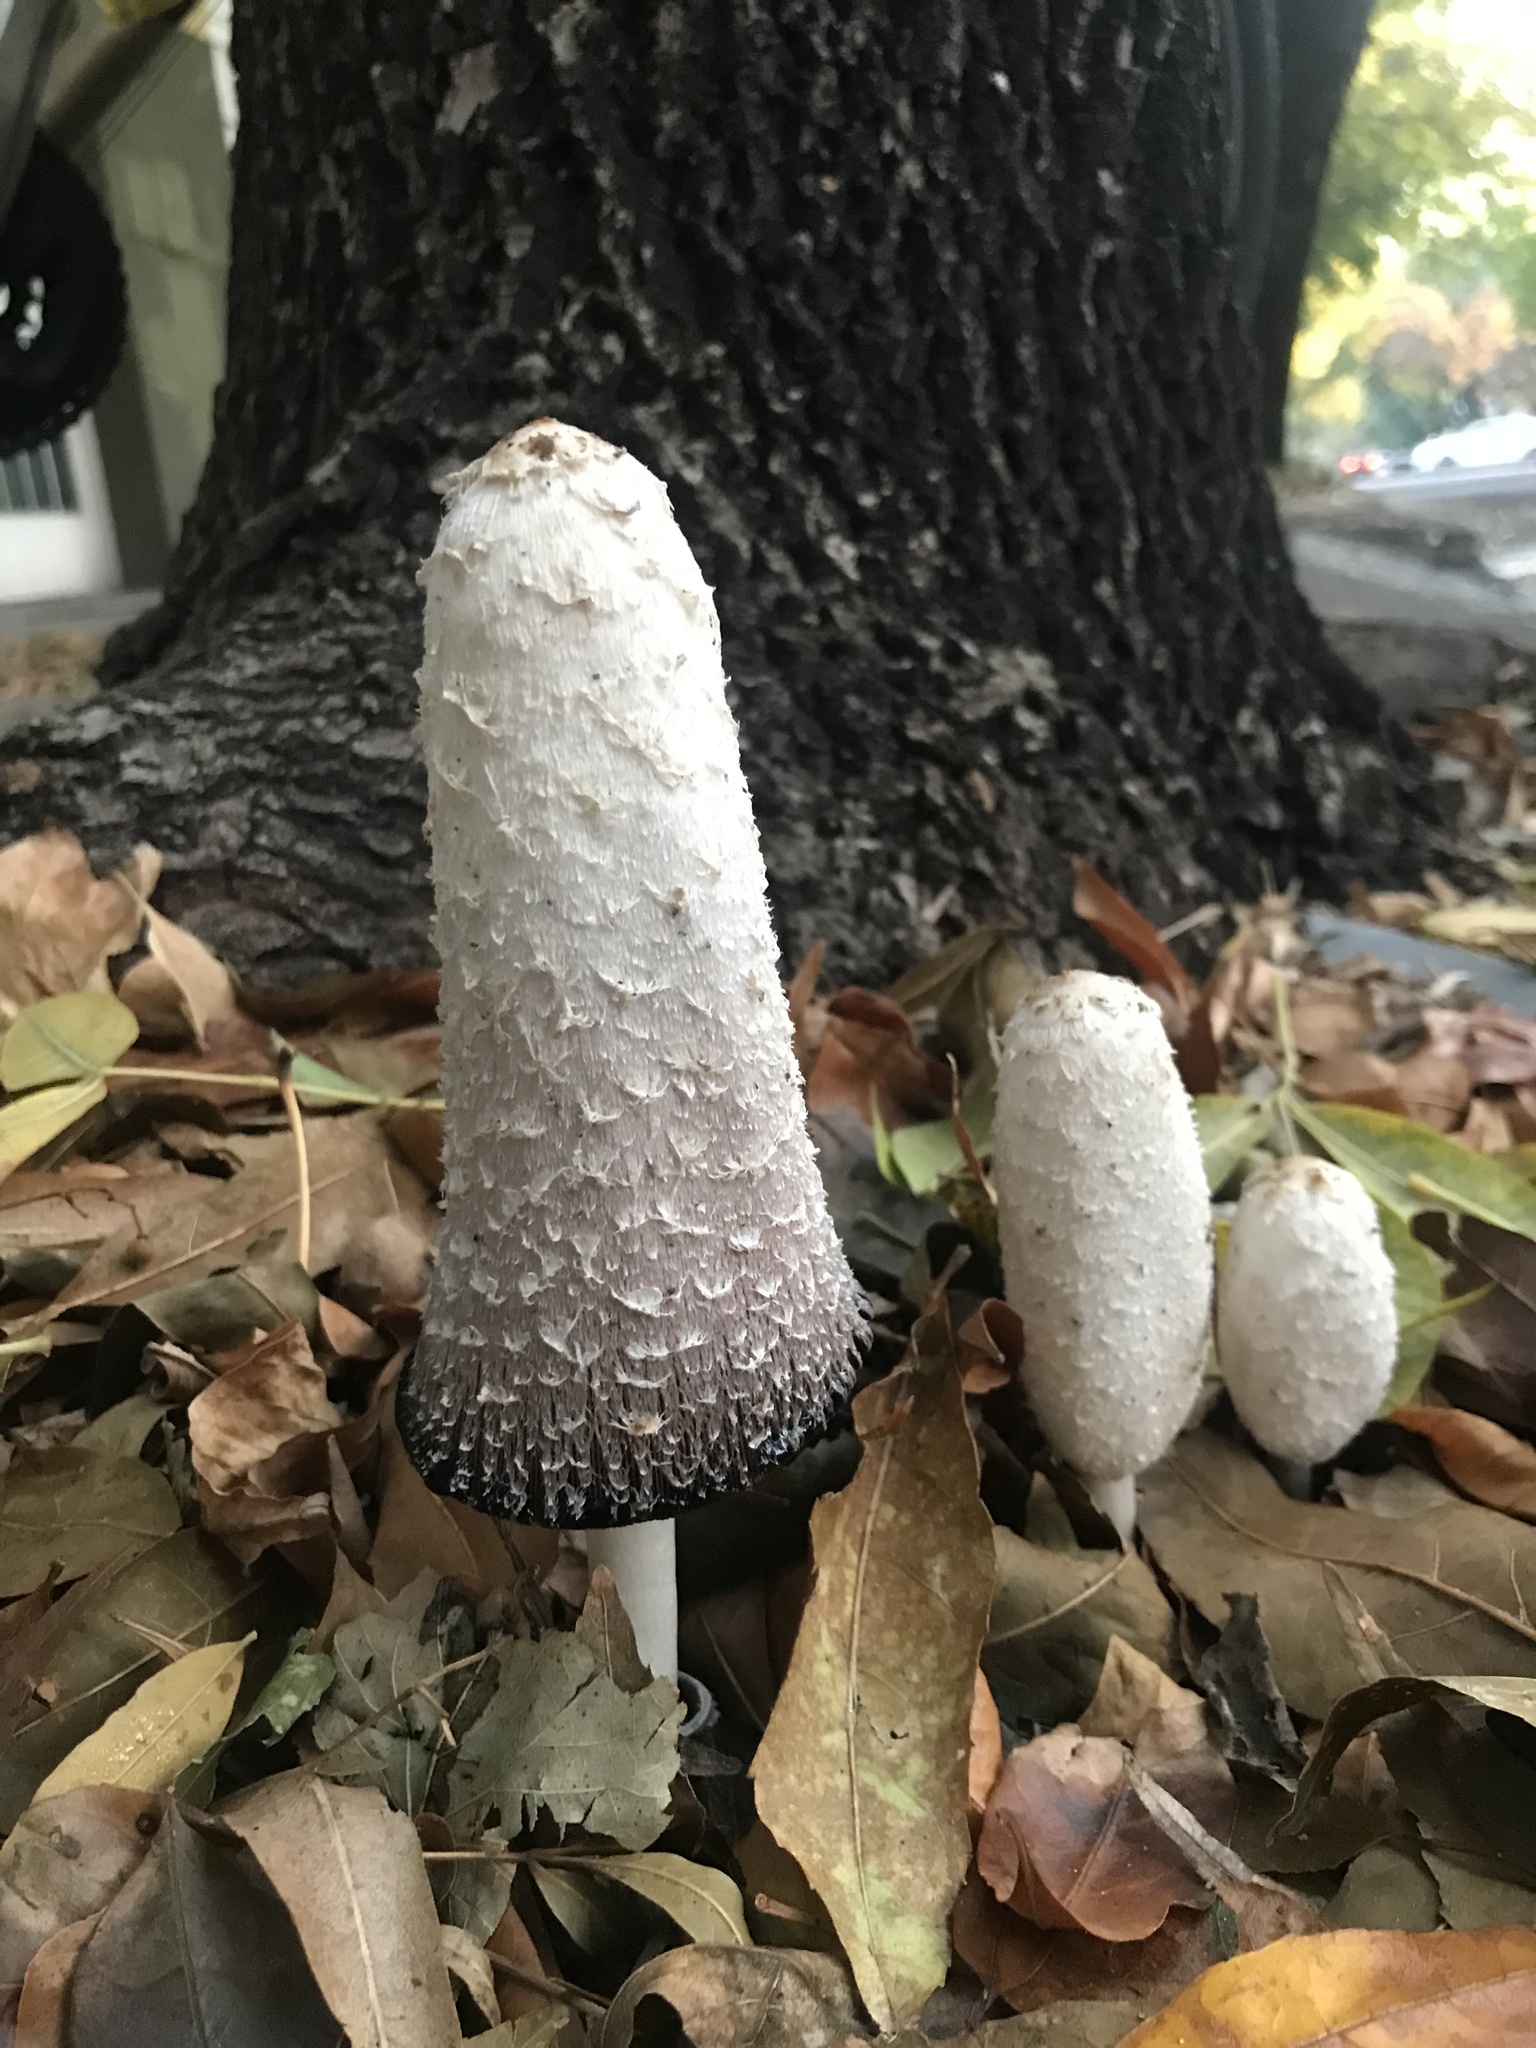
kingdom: Fungi
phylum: Basidiomycota
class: Agaricomycetes
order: Agaricales
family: Agaricaceae
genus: Coprinus
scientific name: Coprinus comatus
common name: Lawyer's wig
